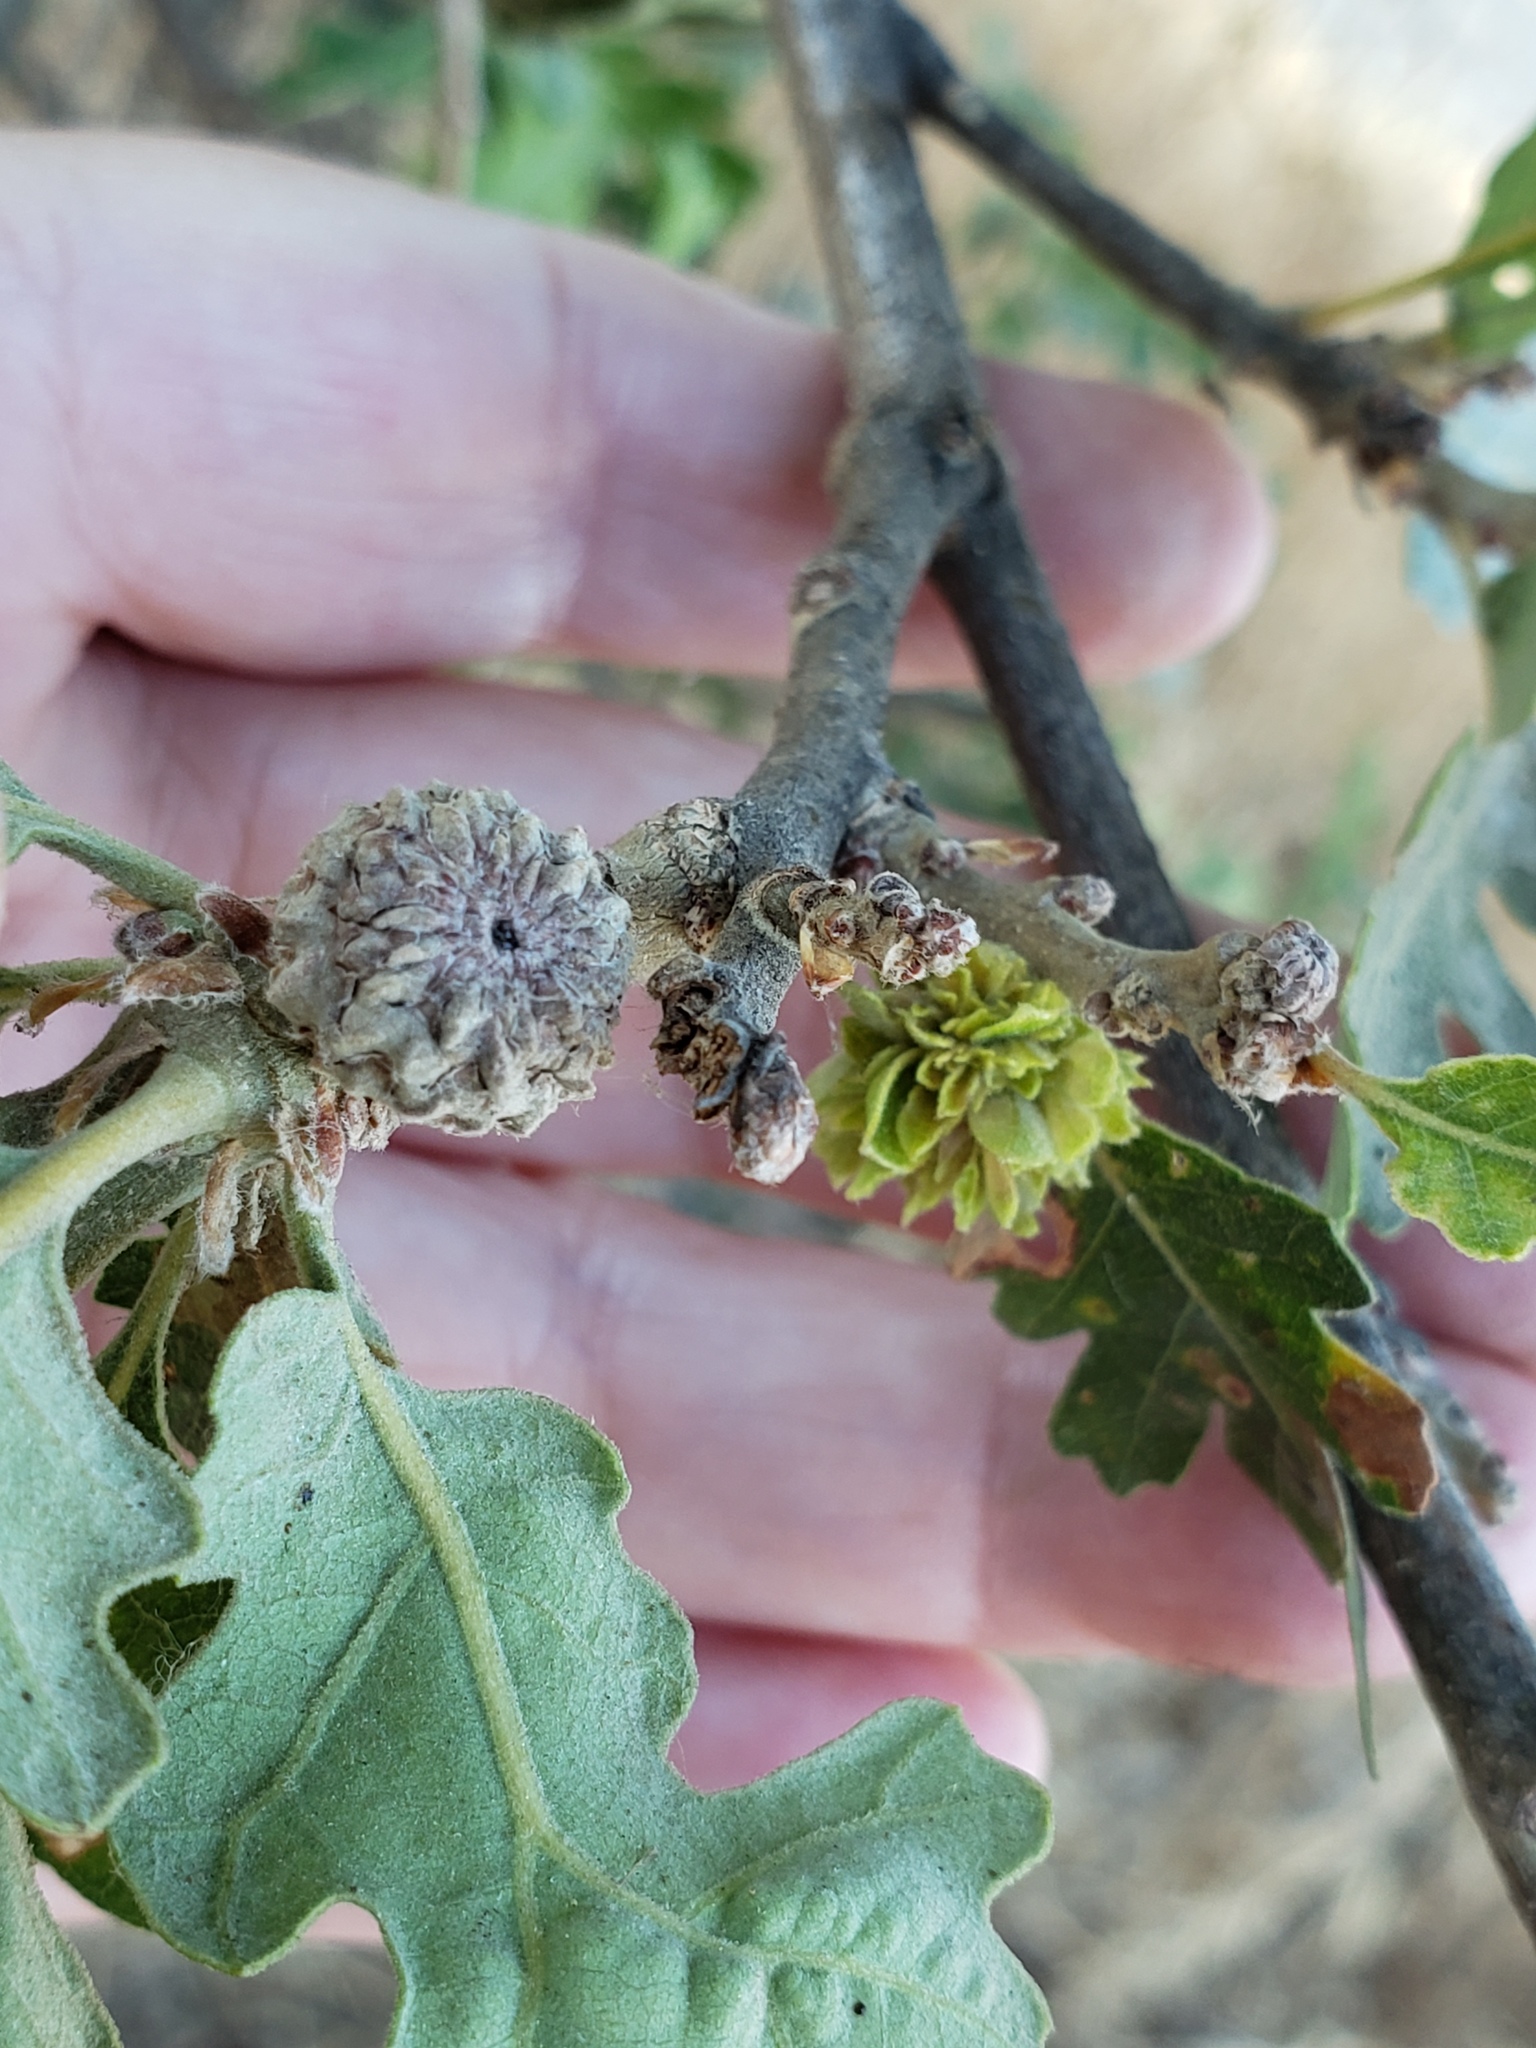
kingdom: Animalia
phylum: Arthropoda
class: Insecta
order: Hymenoptera
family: Cynipidae
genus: Andricus
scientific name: Andricus
